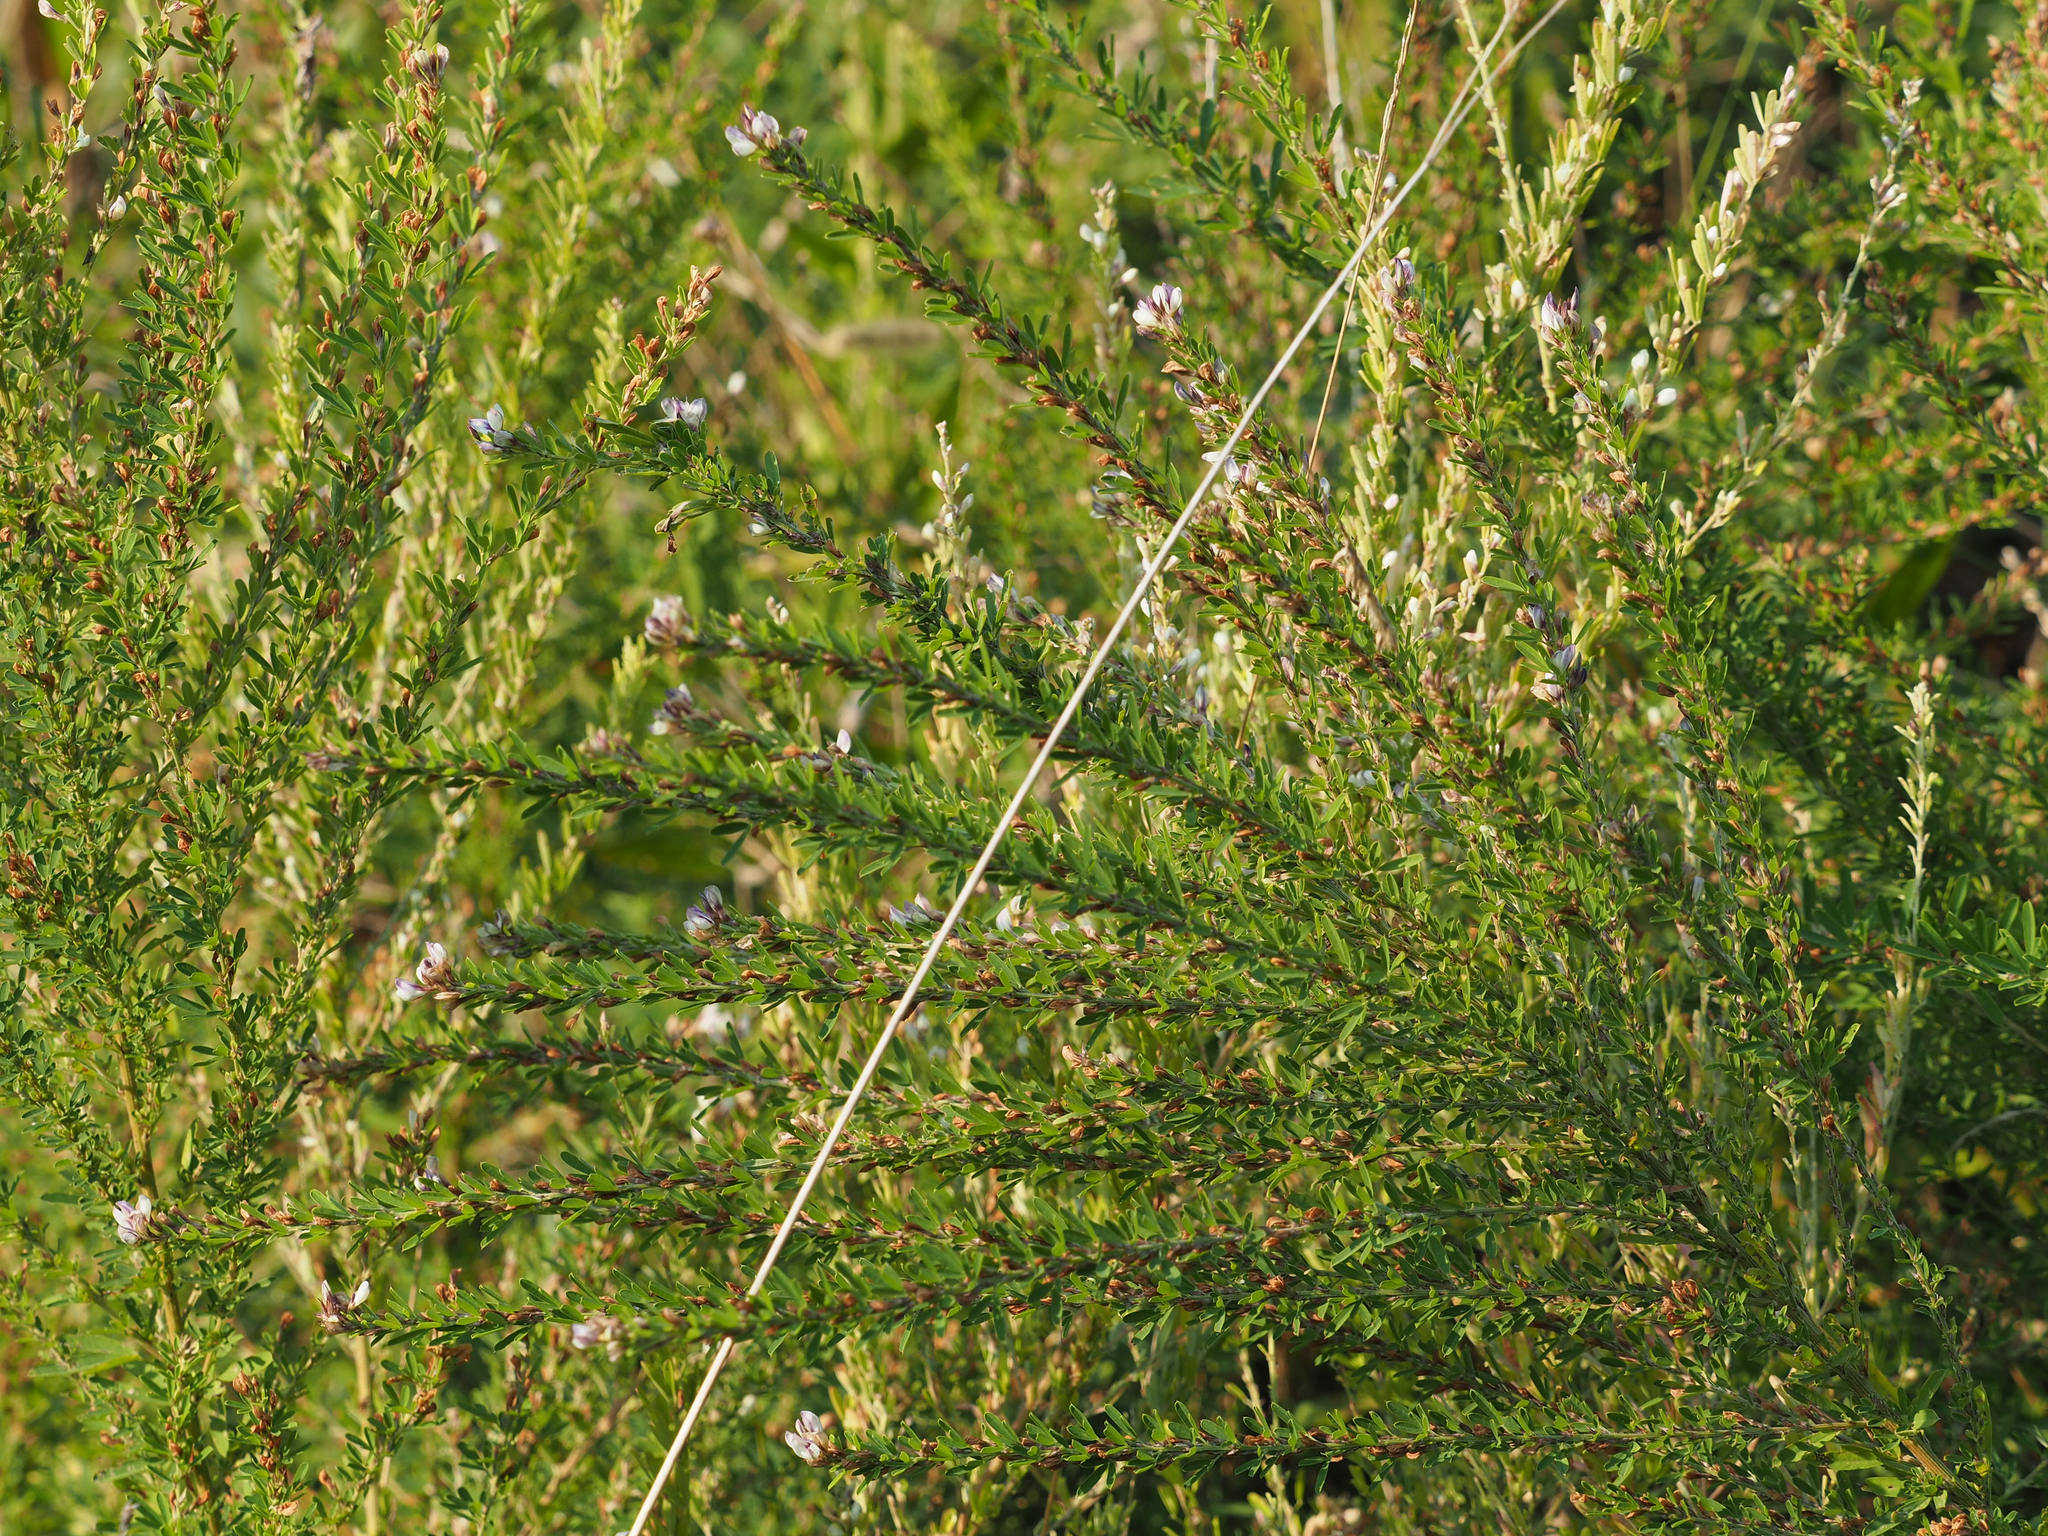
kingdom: Plantae
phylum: Tracheophyta
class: Magnoliopsida
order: Fabales
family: Fabaceae
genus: Lespedeza
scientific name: Lespedeza cuneata
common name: Chinese bush-clover
